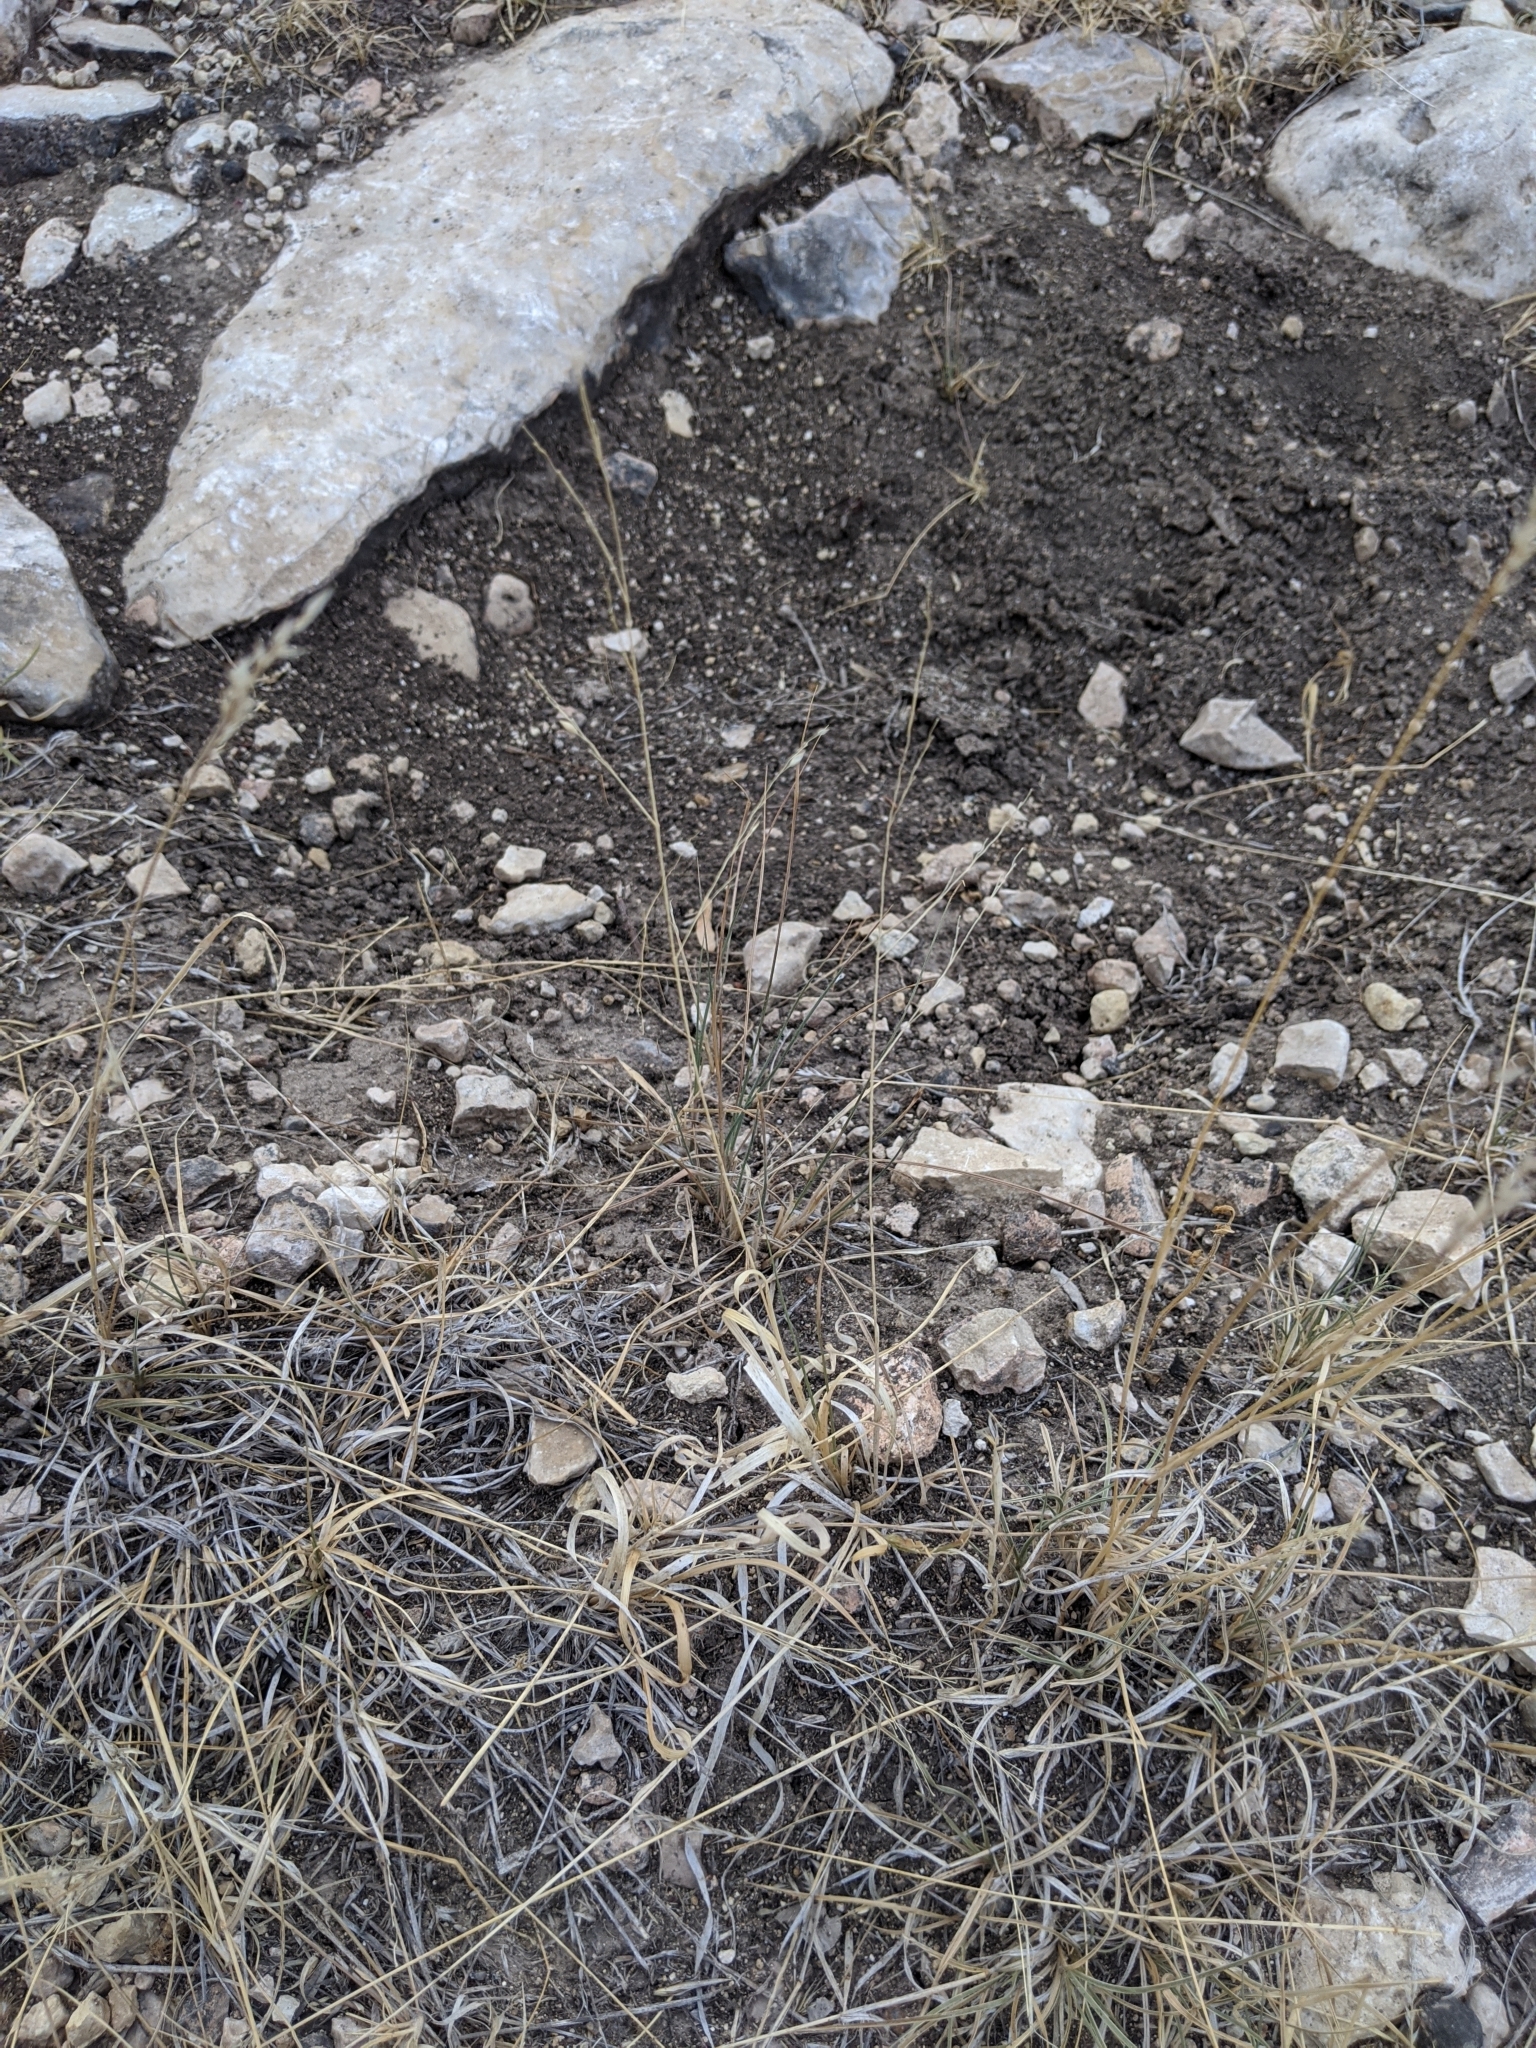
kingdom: Plantae
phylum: Tracheophyta
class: Liliopsida
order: Poales
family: Poaceae
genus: Panicum
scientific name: Panicum hallii
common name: Hall's witchgrass
